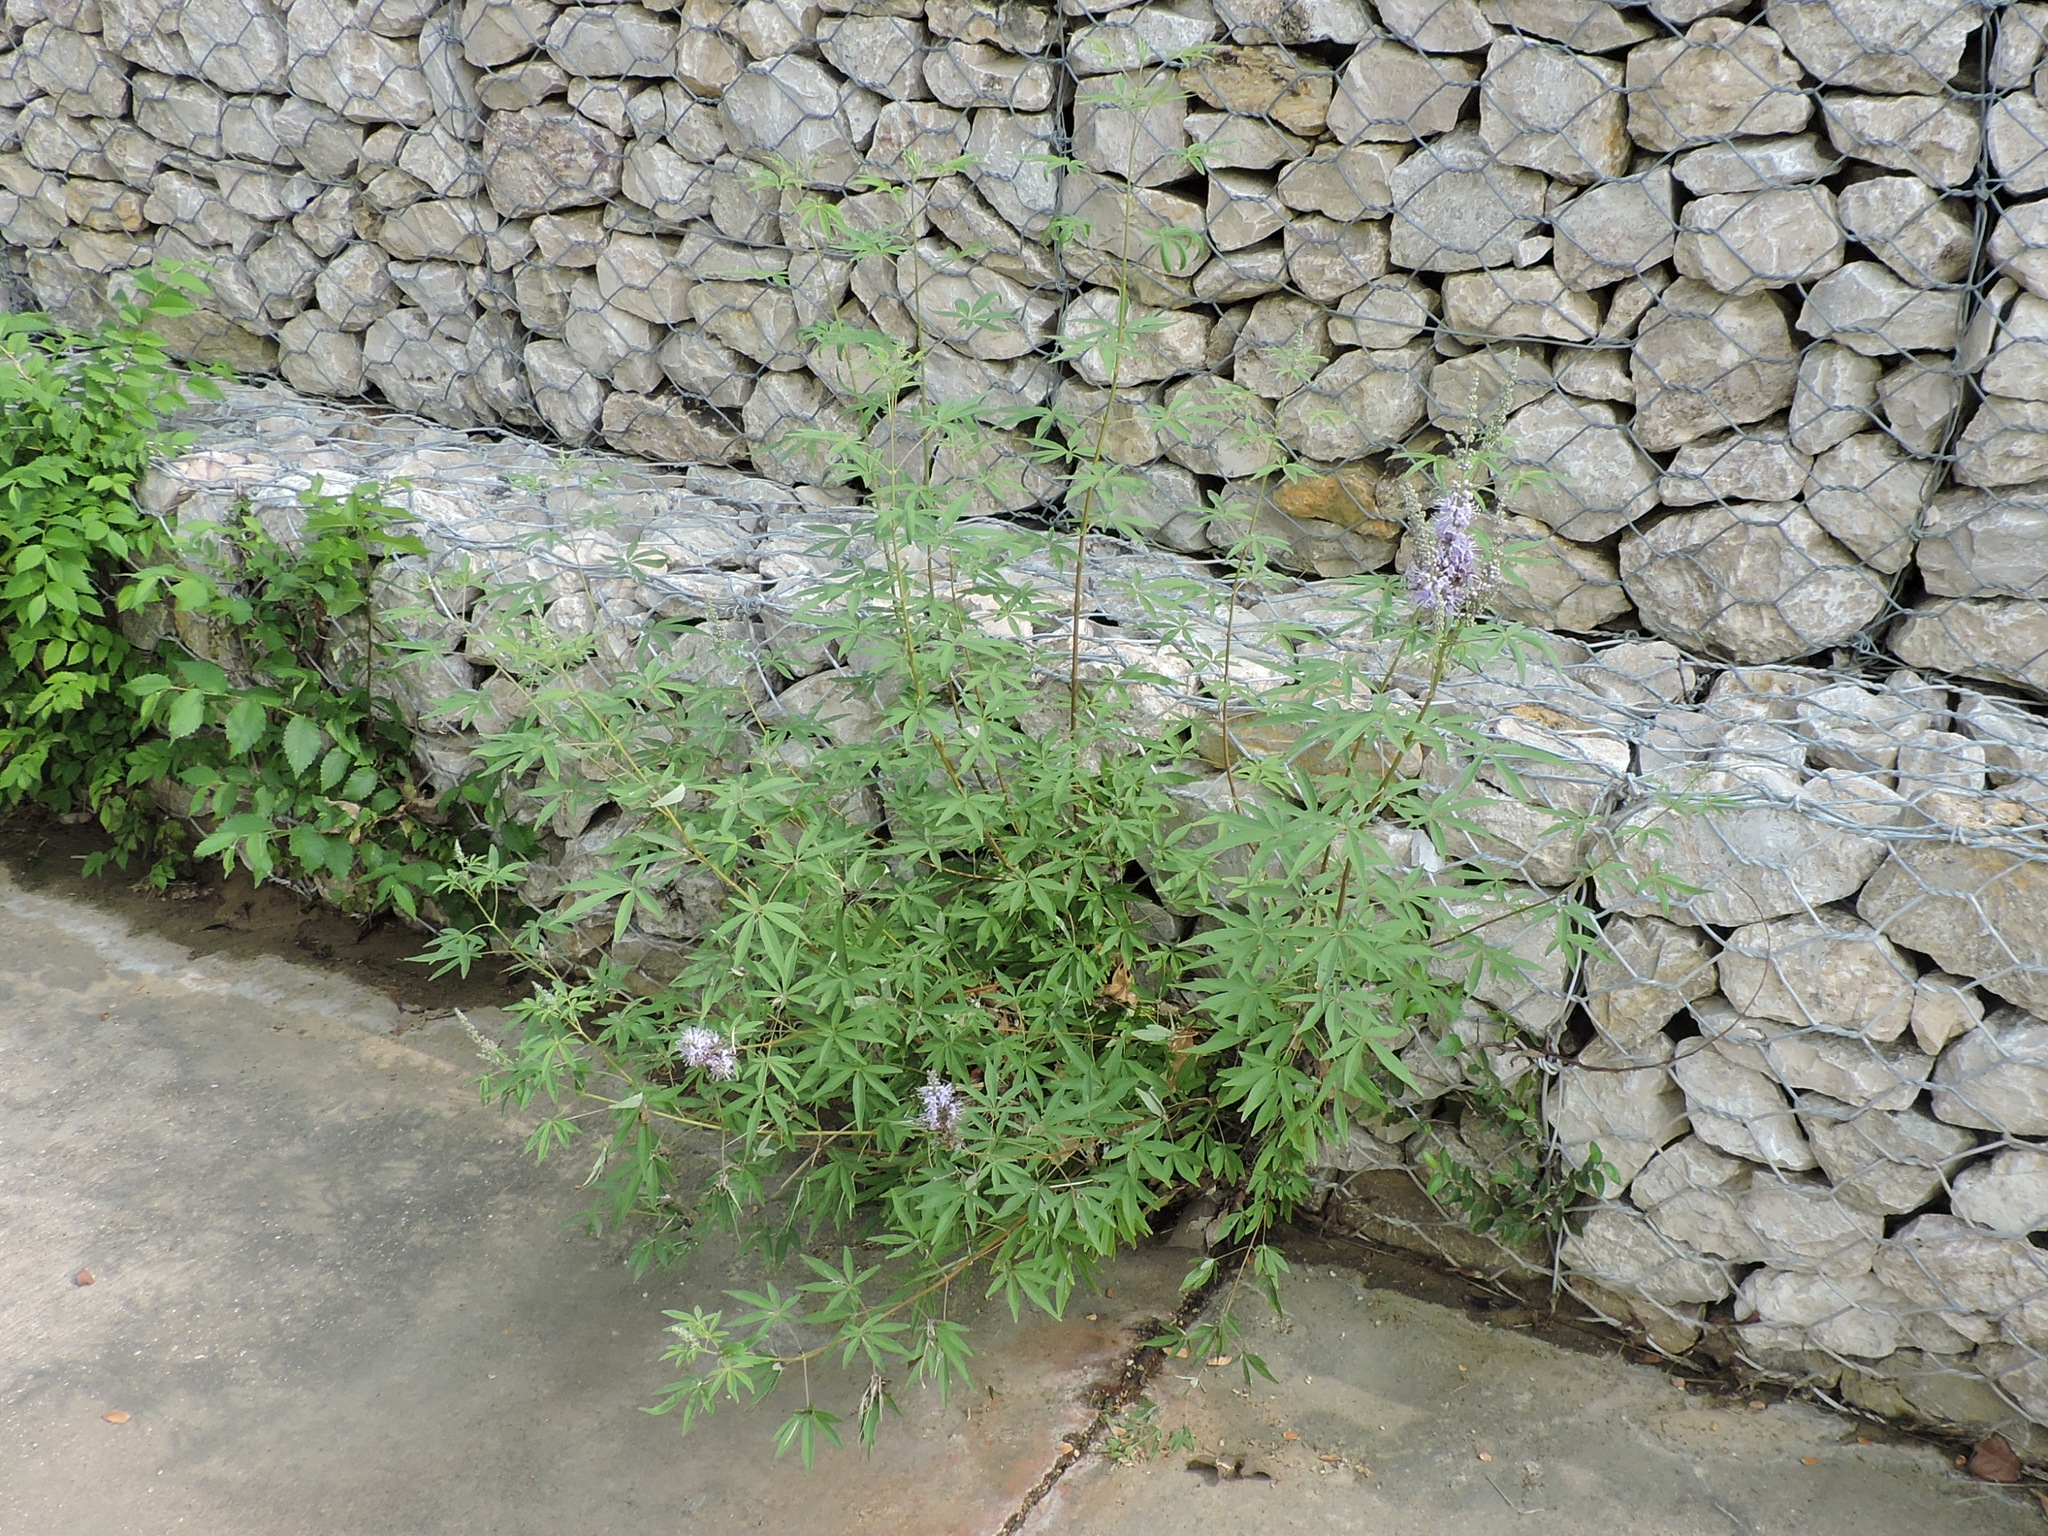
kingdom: Plantae
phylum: Tracheophyta
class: Magnoliopsida
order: Lamiales
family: Lamiaceae
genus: Vitex
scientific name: Vitex agnus-castus
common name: Chasteberry
